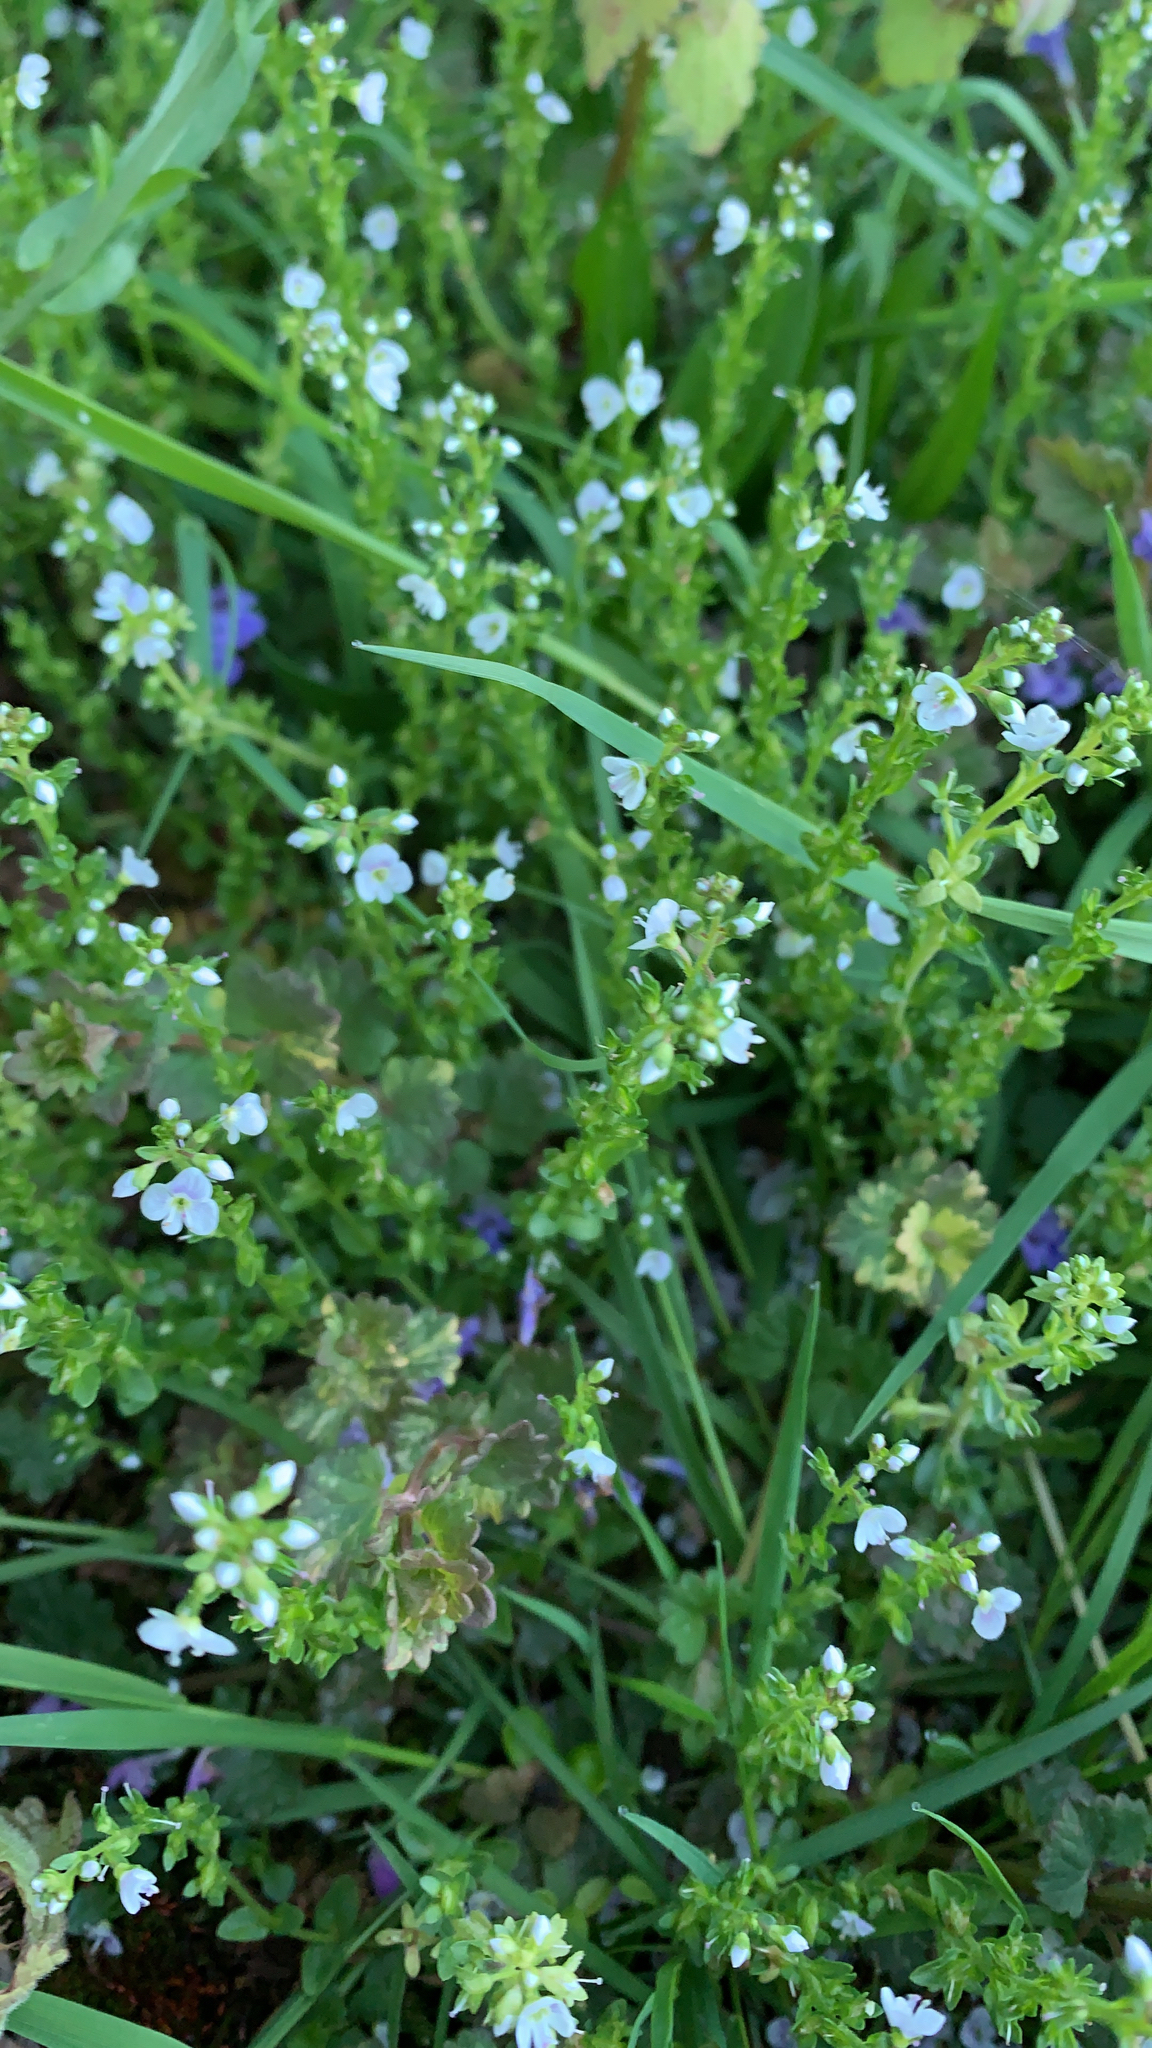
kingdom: Plantae
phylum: Tracheophyta
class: Magnoliopsida
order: Lamiales
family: Plantaginaceae
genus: Veronica
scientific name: Veronica serpyllifolia
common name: Thyme-leaved speedwell
